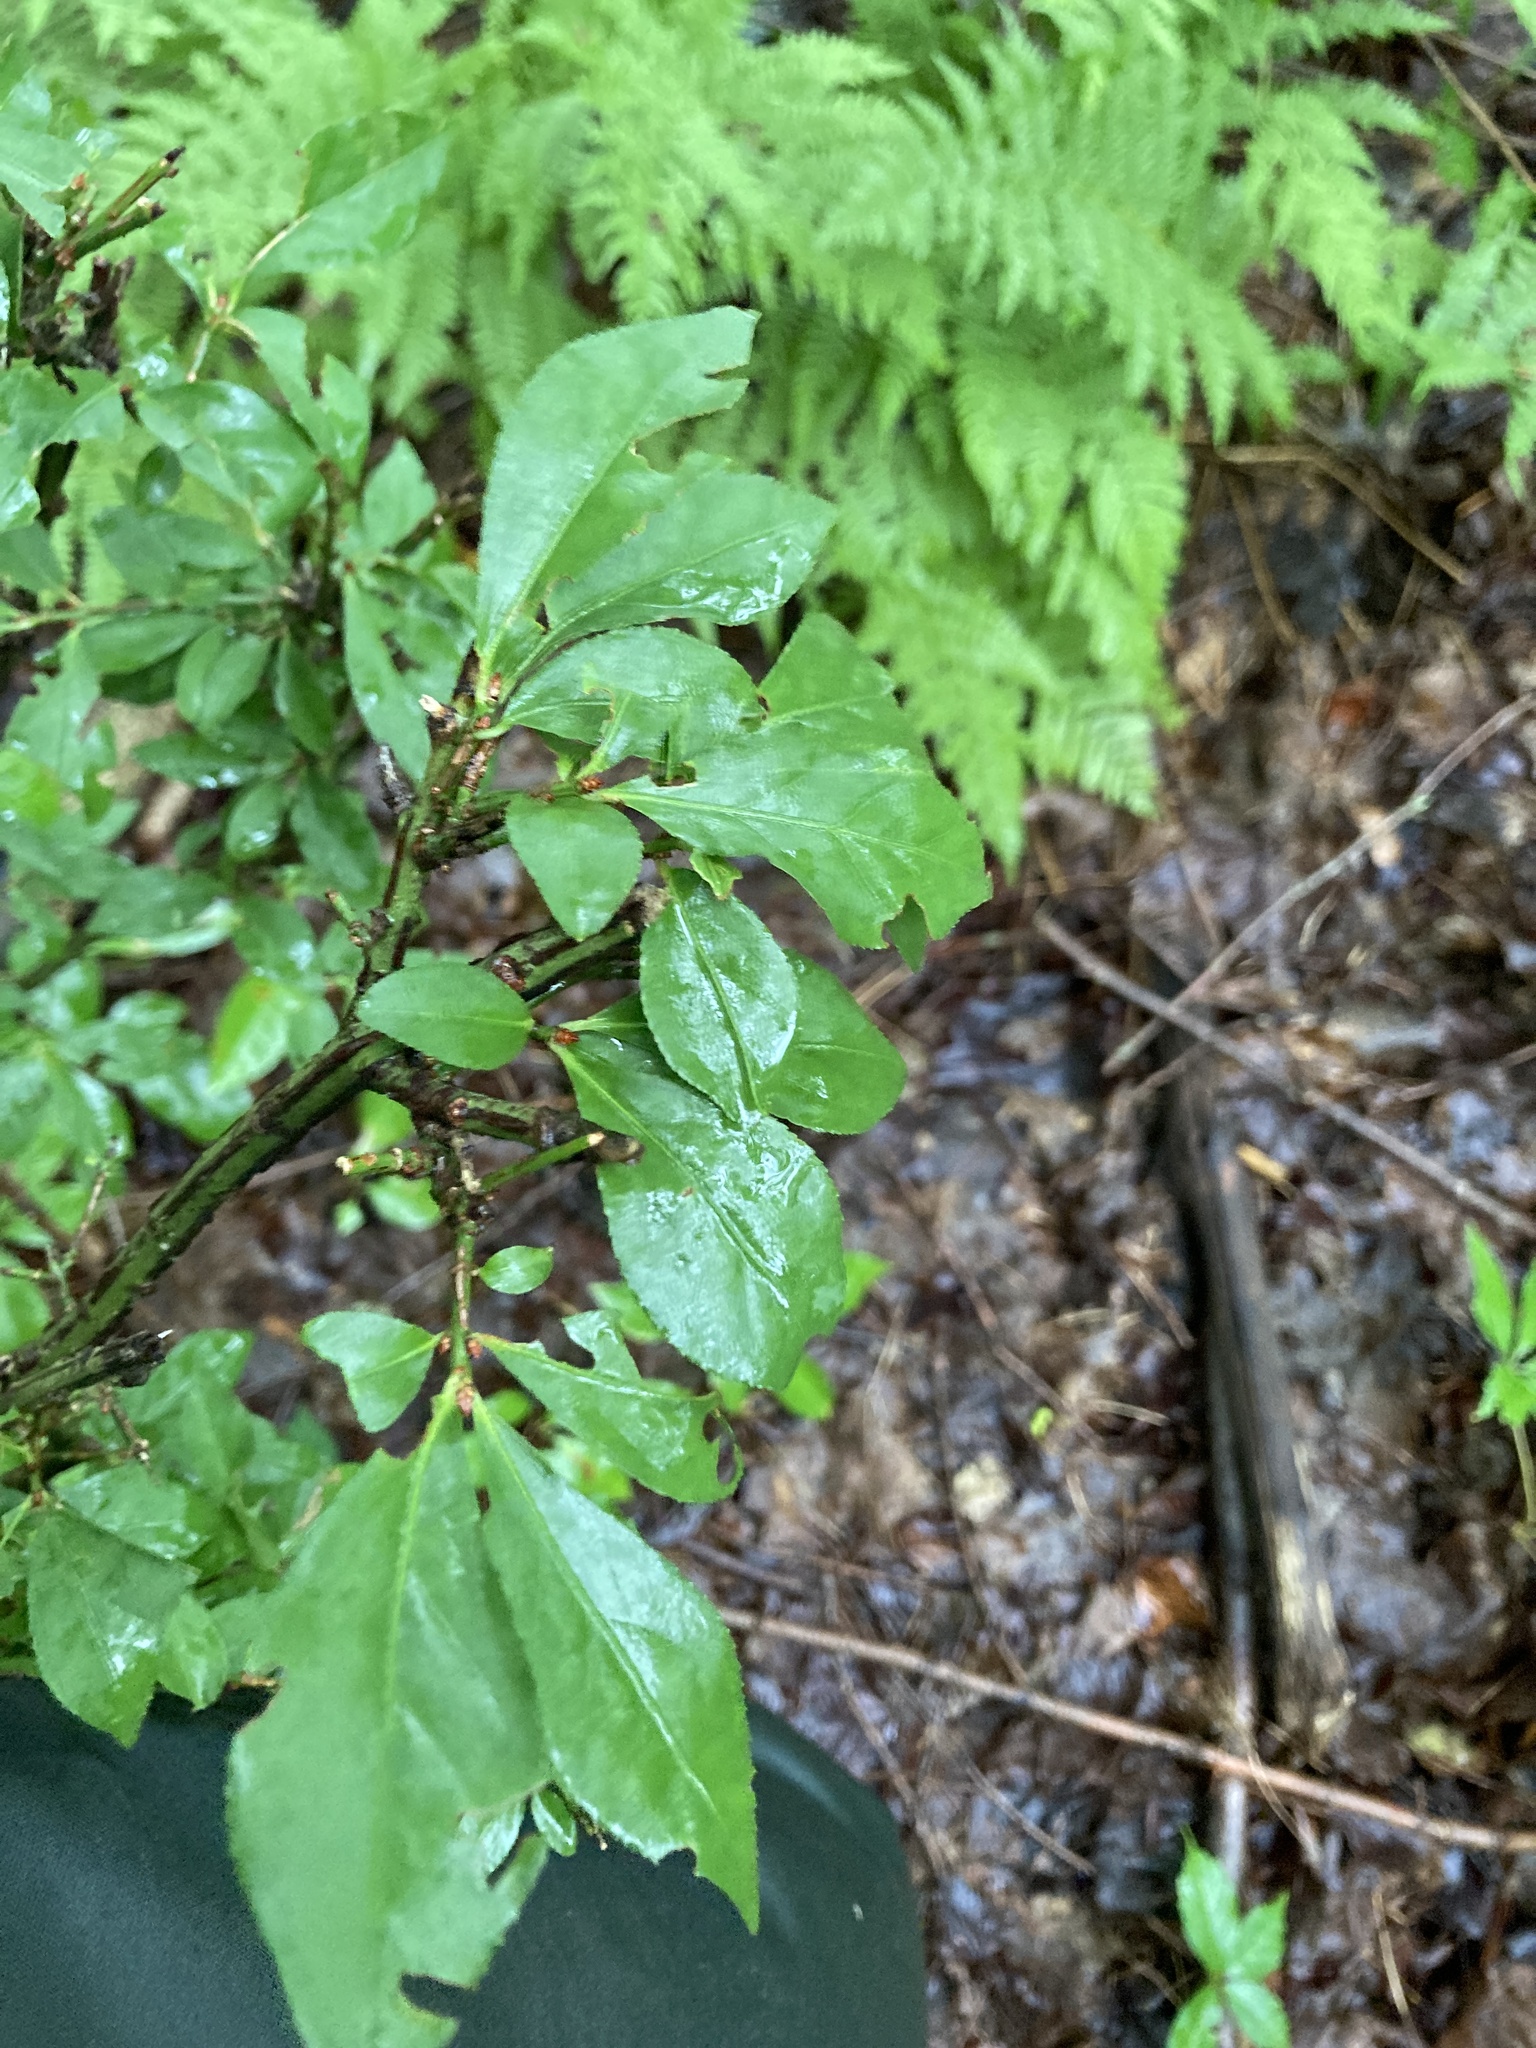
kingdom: Plantae
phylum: Tracheophyta
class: Magnoliopsida
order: Celastrales
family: Celastraceae
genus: Euonymus
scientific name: Euonymus alatus
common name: Winged euonymus
